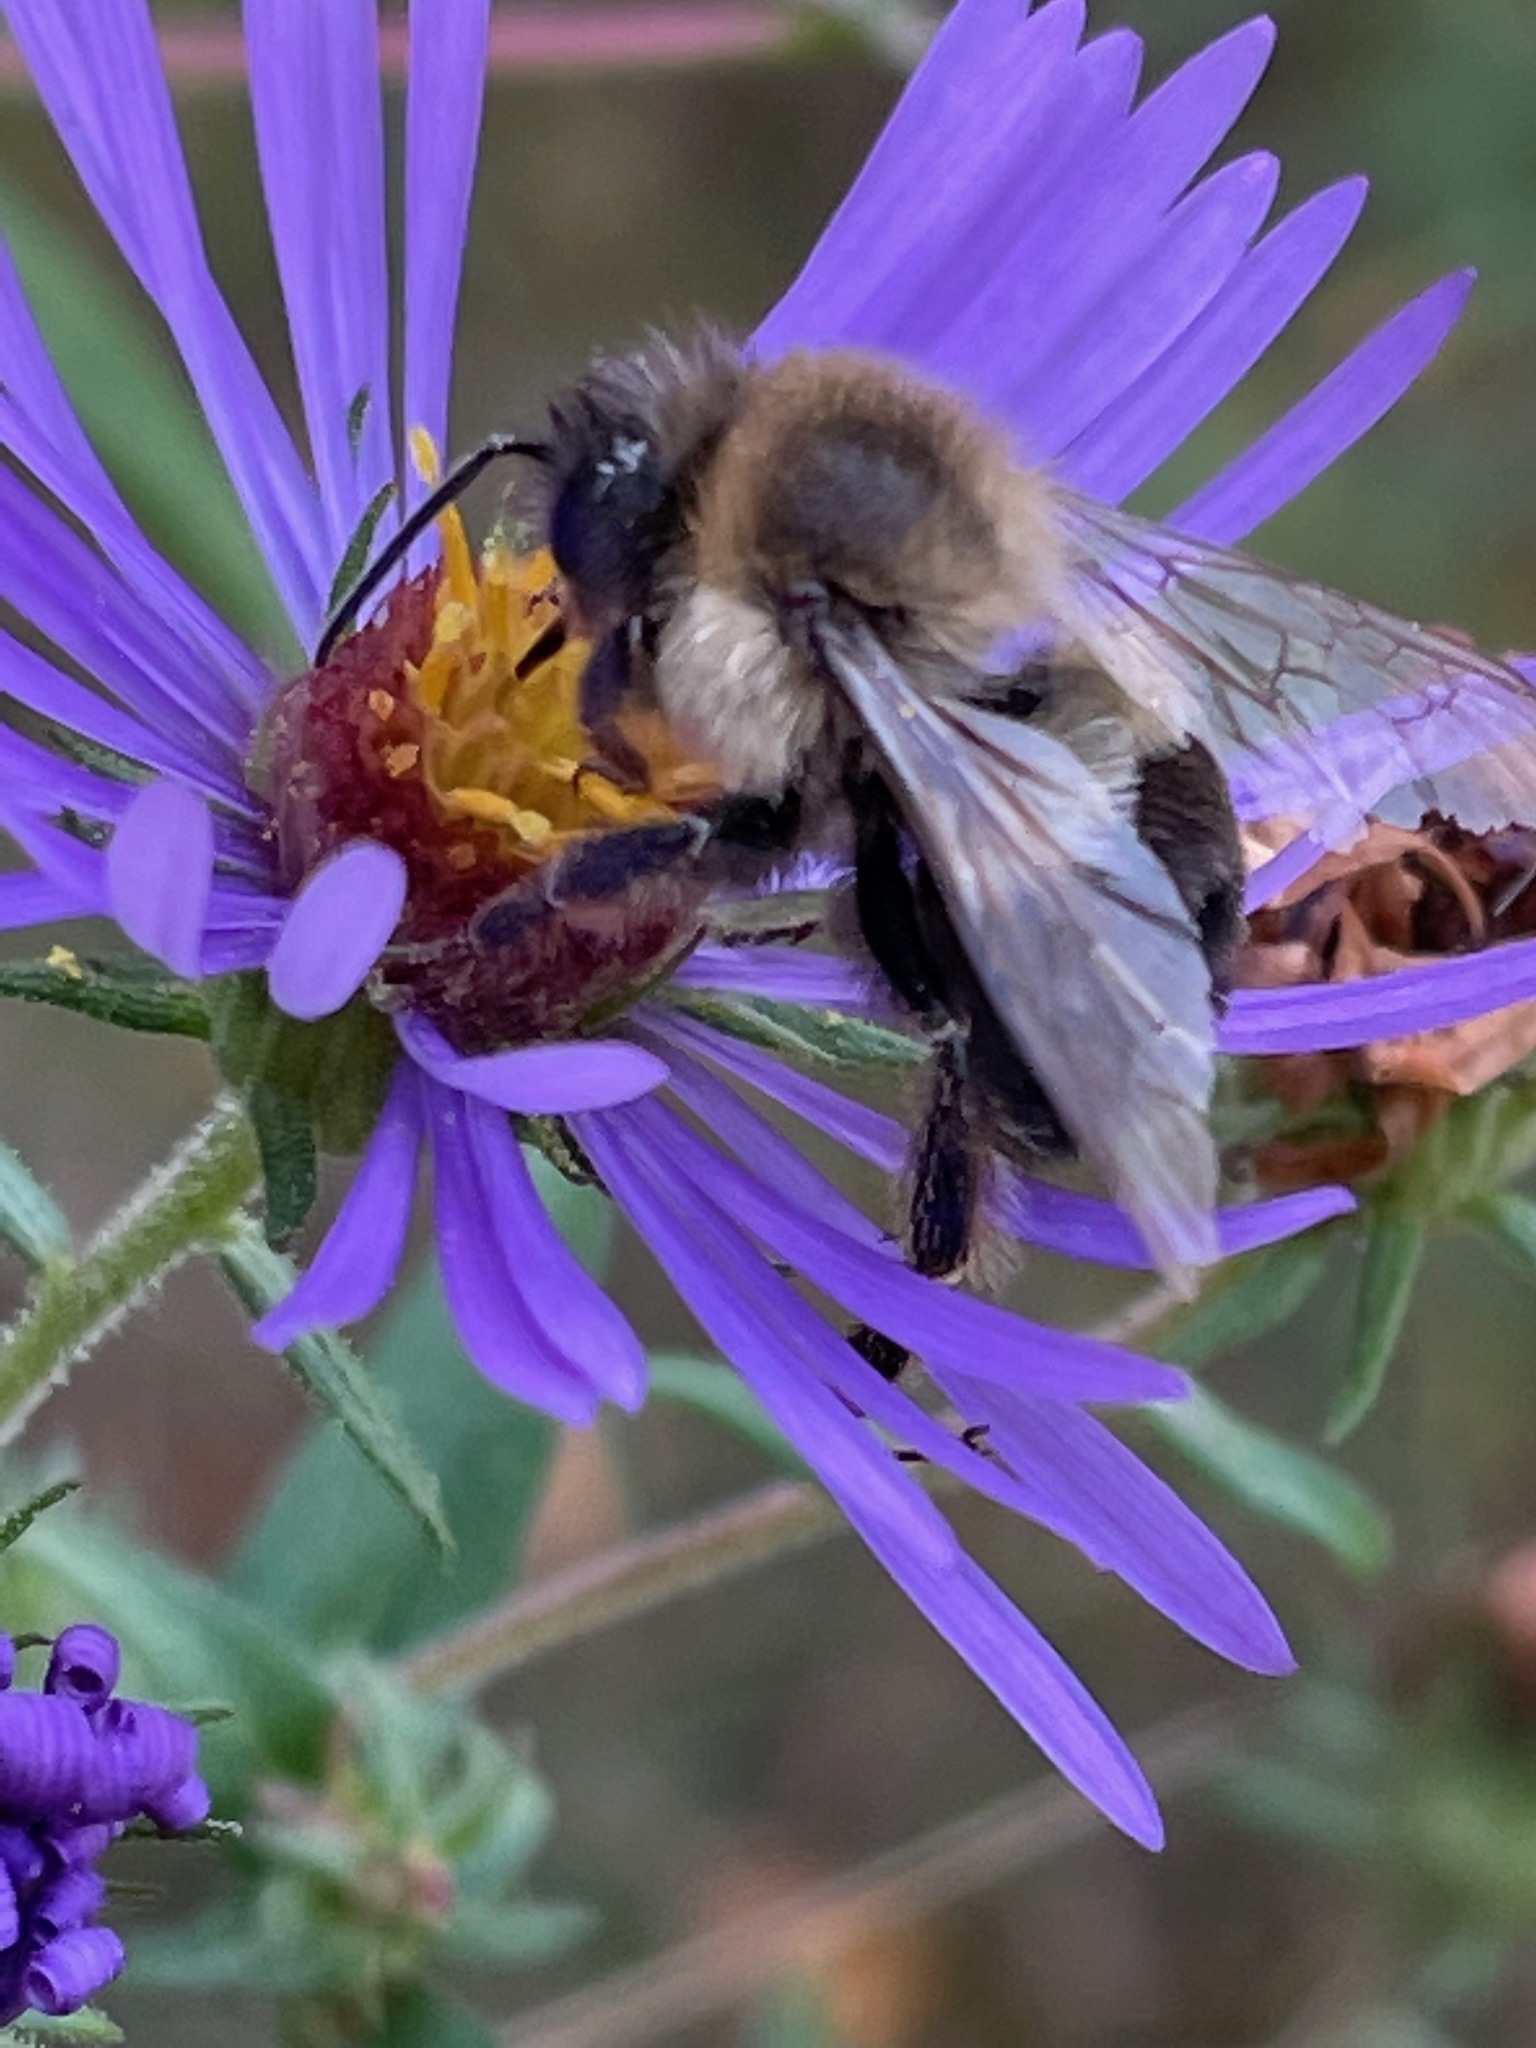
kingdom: Animalia
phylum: Arthropoda
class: Insecta
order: Hymenoptera
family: Apidae
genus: Bombus
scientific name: Bombus impatiens
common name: Common eastern bumble bee
